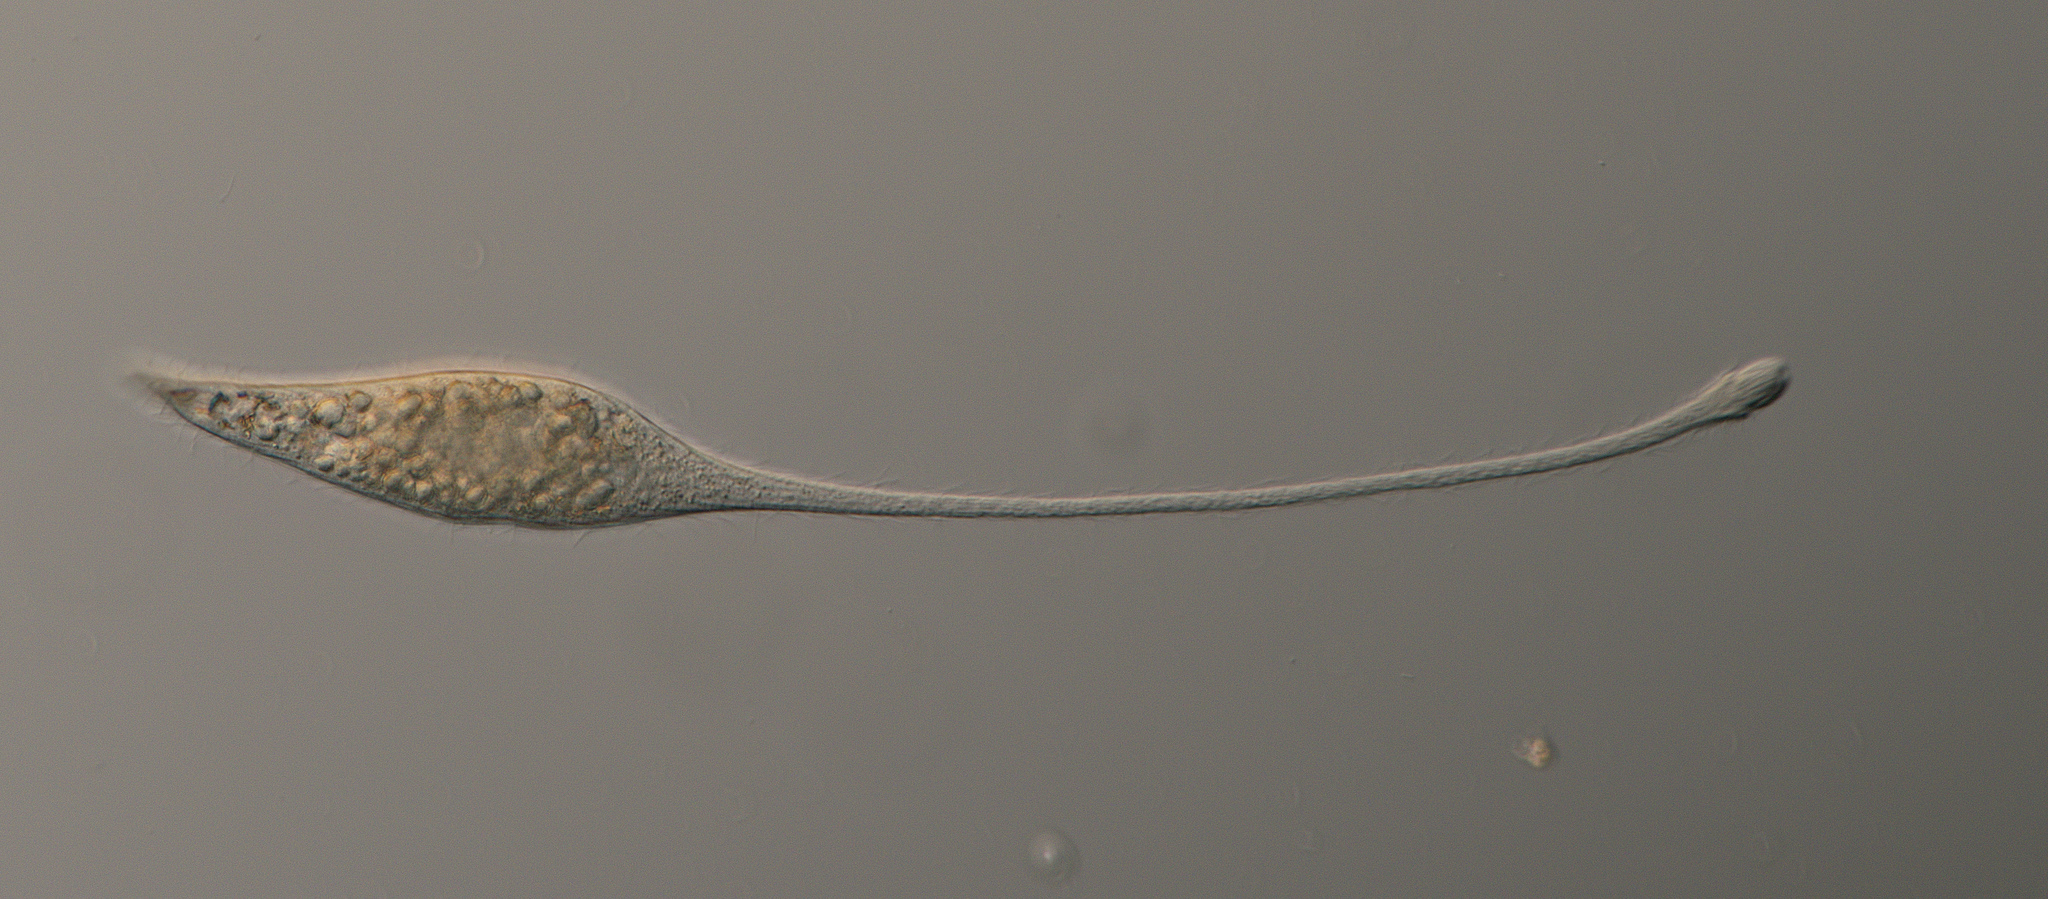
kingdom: Chromista
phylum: Ciliophora
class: Gymnostomatea
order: Spathidiida
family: Lacrymariidae
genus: Lacrymaria
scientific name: Lacrymaria olor
